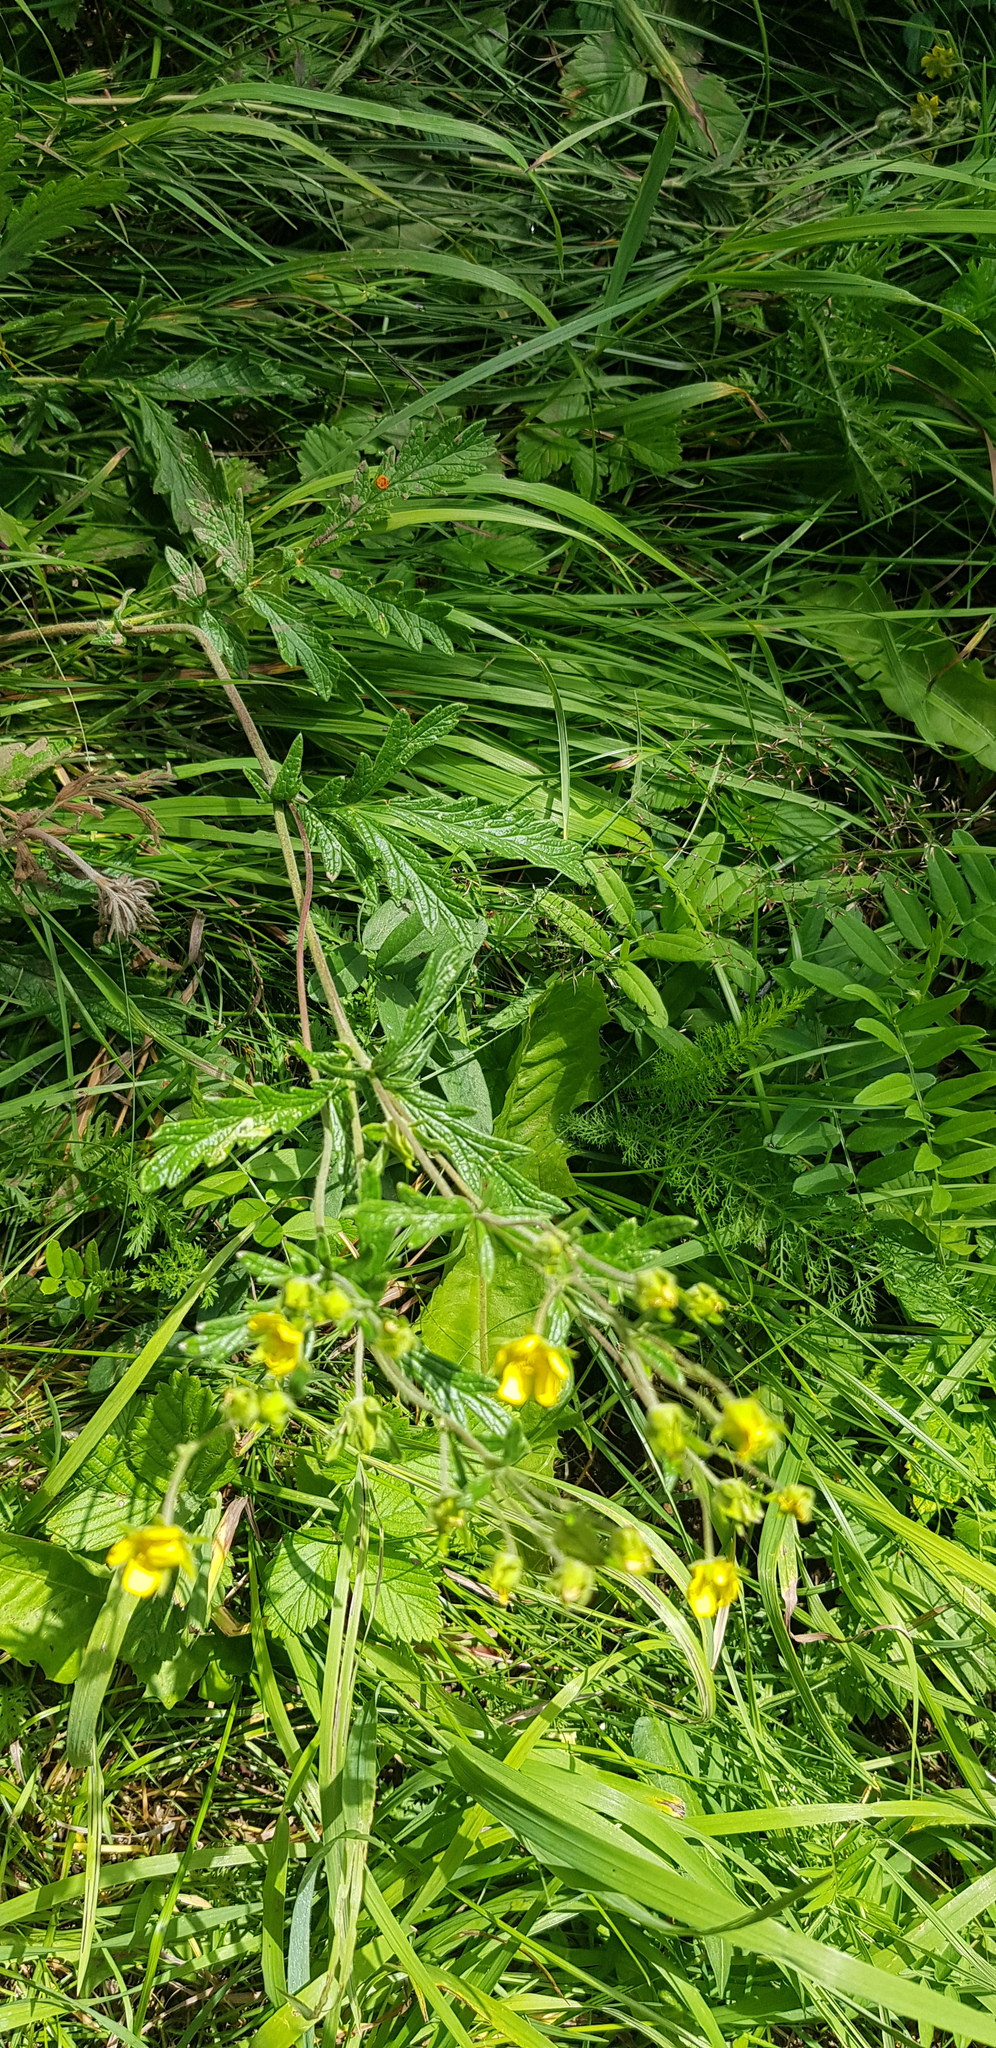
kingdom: Plantae
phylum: Tracheophyta
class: Magnoliopsida
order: Rosales
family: Rosaceae
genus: Potentilla
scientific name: Potentilla tanacetifolia
